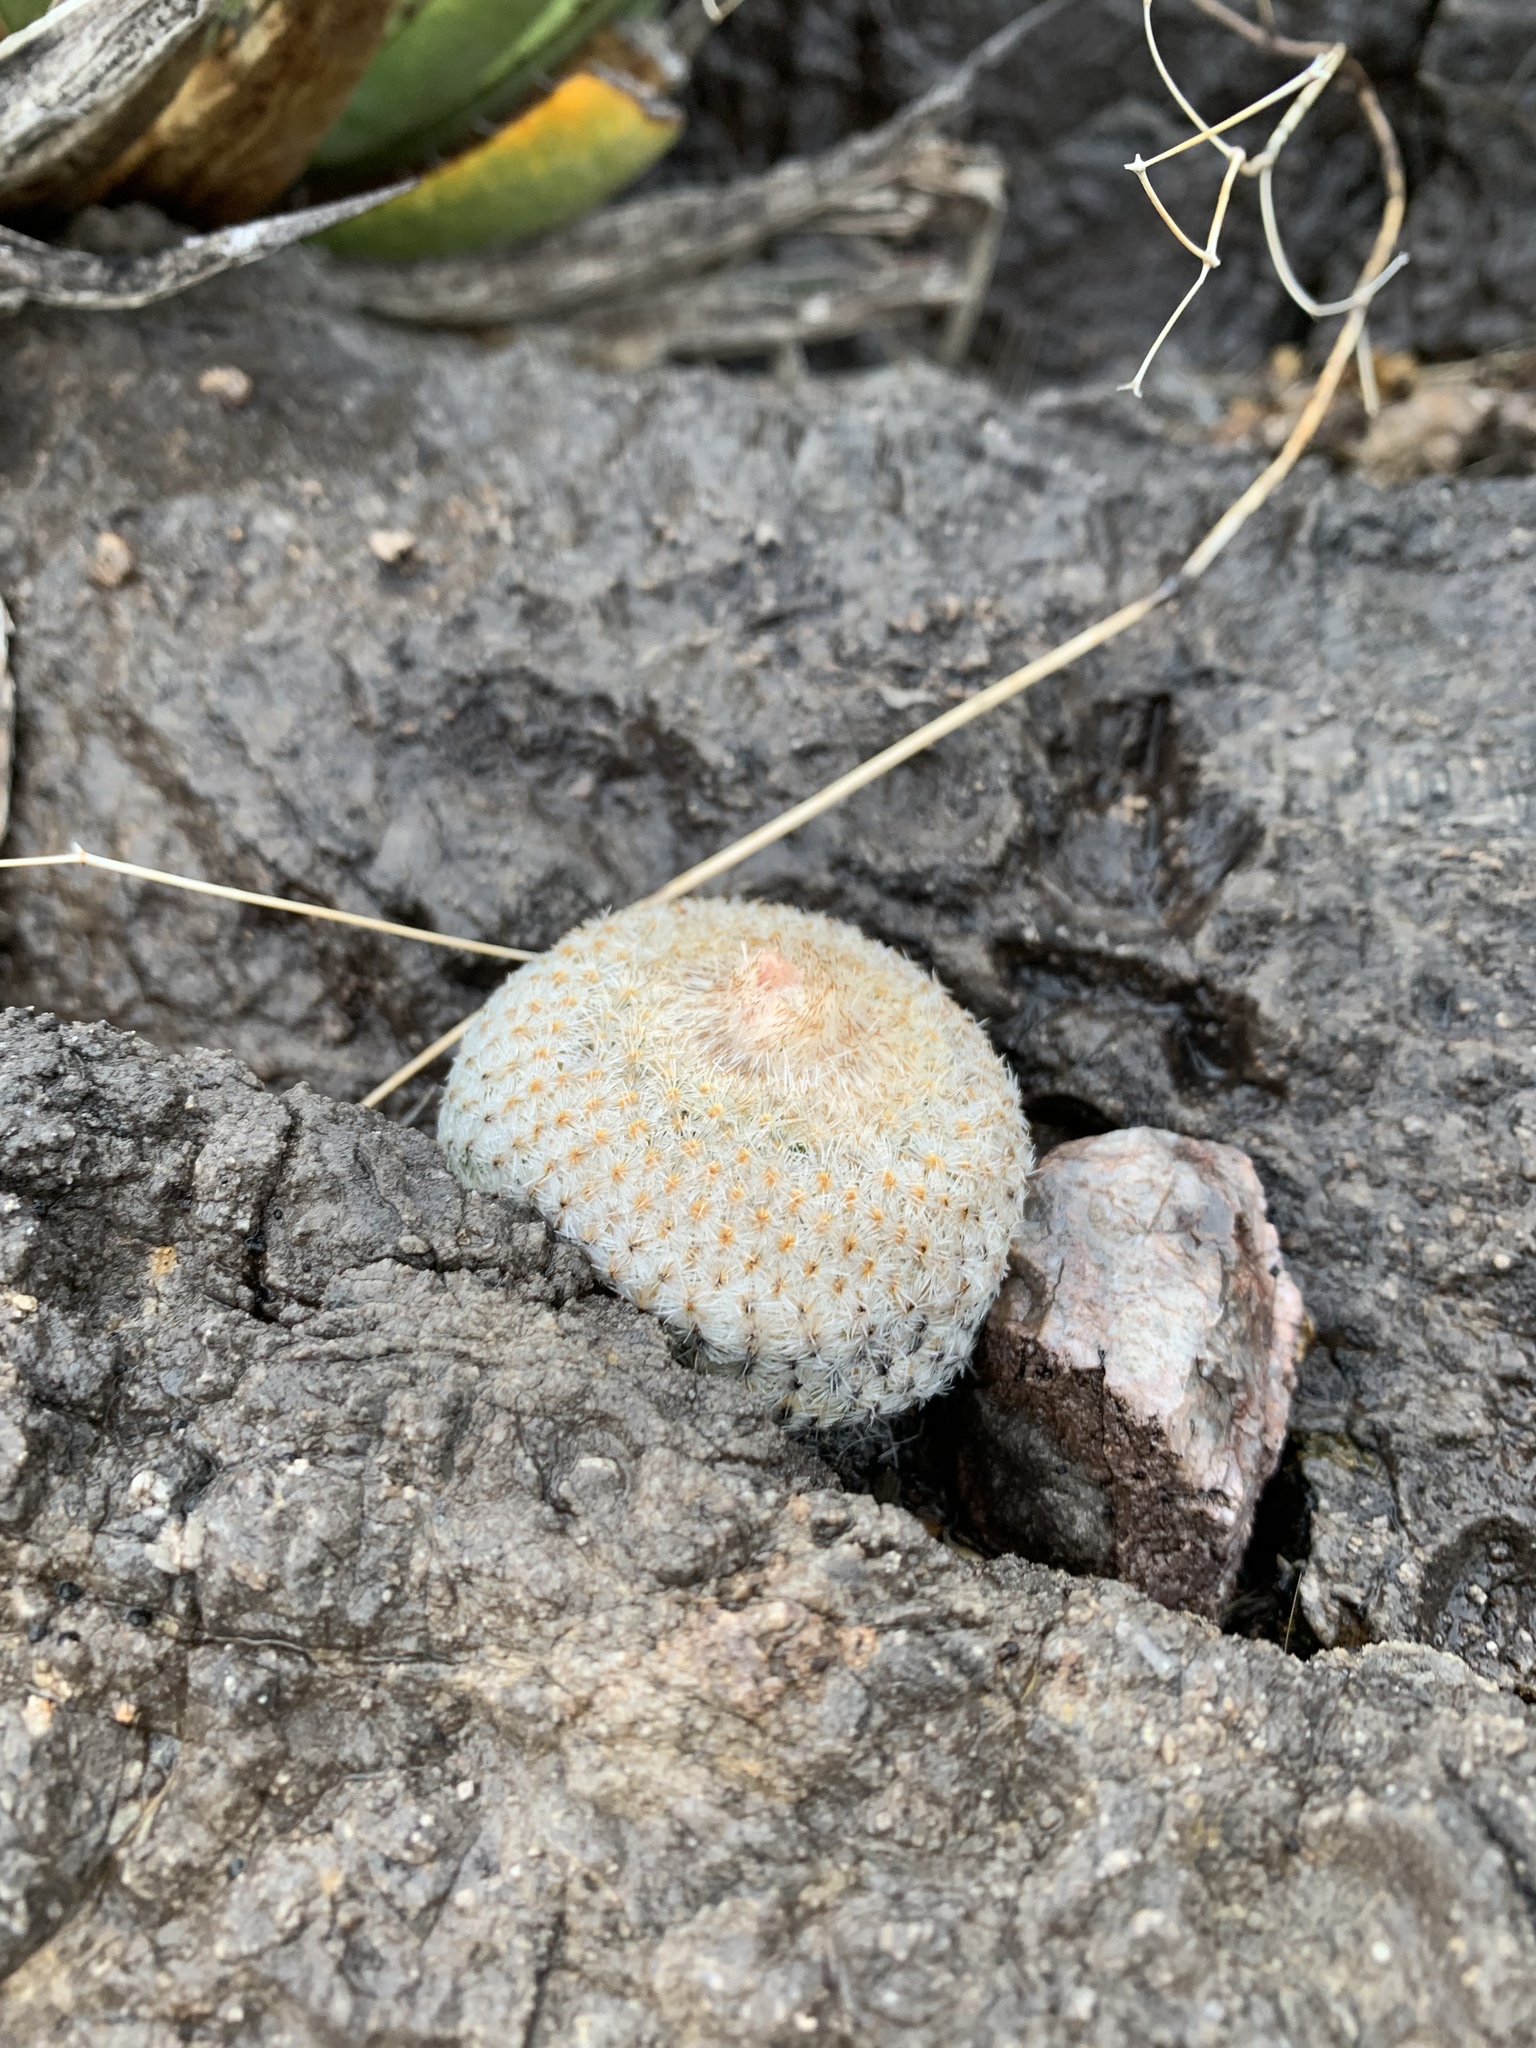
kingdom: Plantae
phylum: Tracheophyta
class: Magnoliopsida
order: Caryophyllales
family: Cactaceae
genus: Epithelantha
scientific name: Epithelantha micromeris
